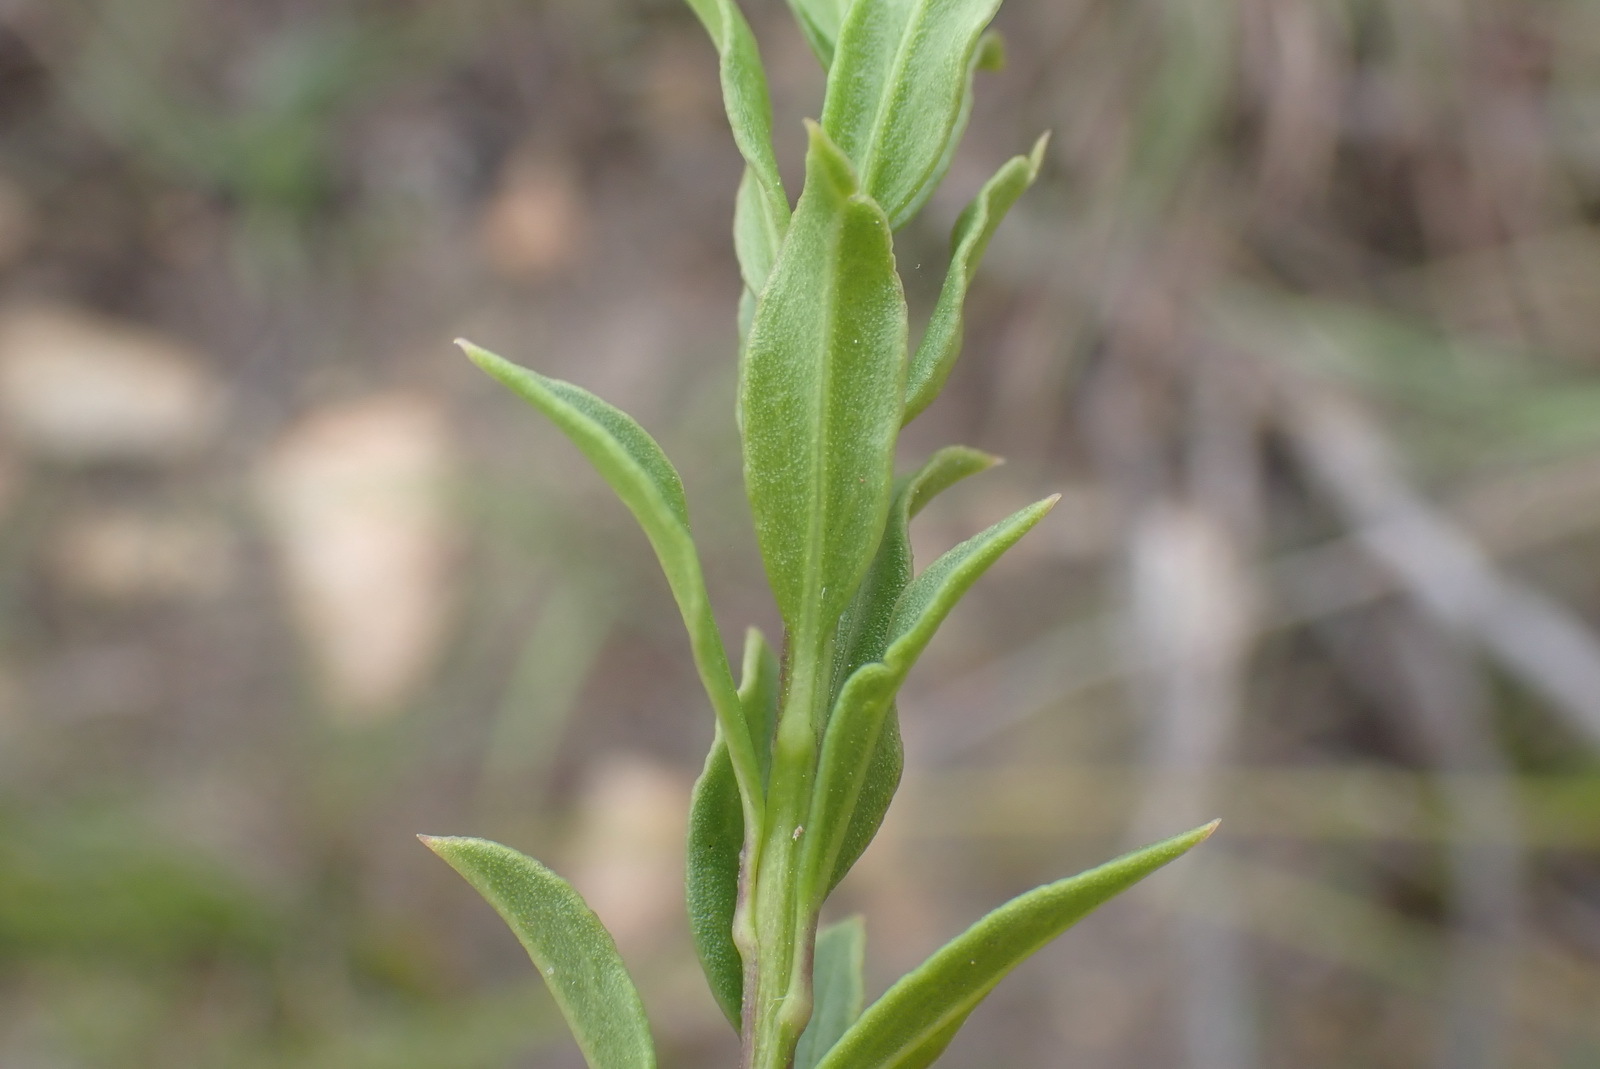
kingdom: Plantae
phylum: Tracheophyta
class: Magnoliopsida
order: Lamiales
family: Scrophulariaceae
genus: Freylinia
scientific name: Freylinia densiflora
